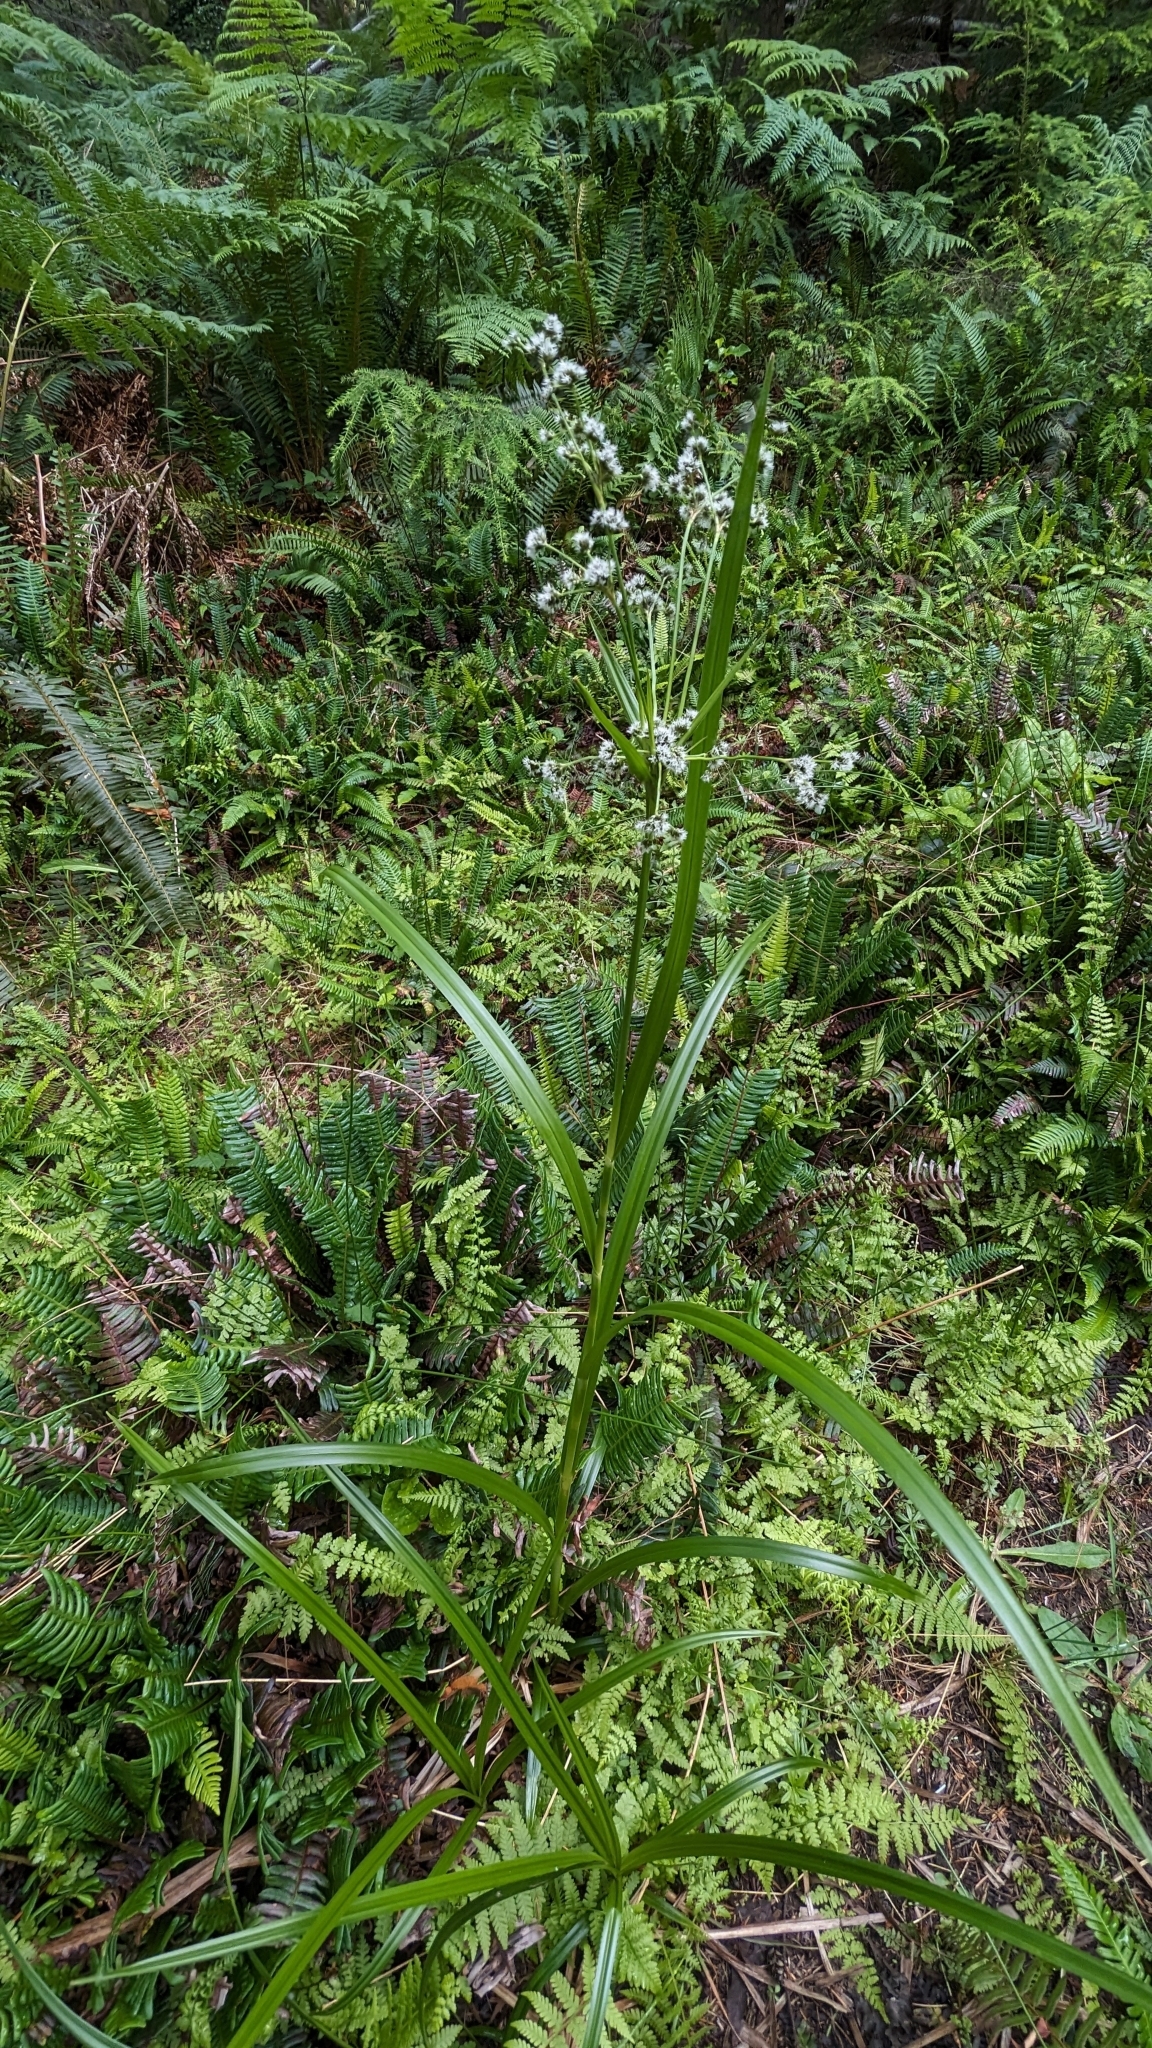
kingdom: Plantae
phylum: Tracheophyta
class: Liliopsida
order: Poales
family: Cyperaceae
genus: Scirpus
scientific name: Scirpus microcarpus
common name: Panicled bulrush
